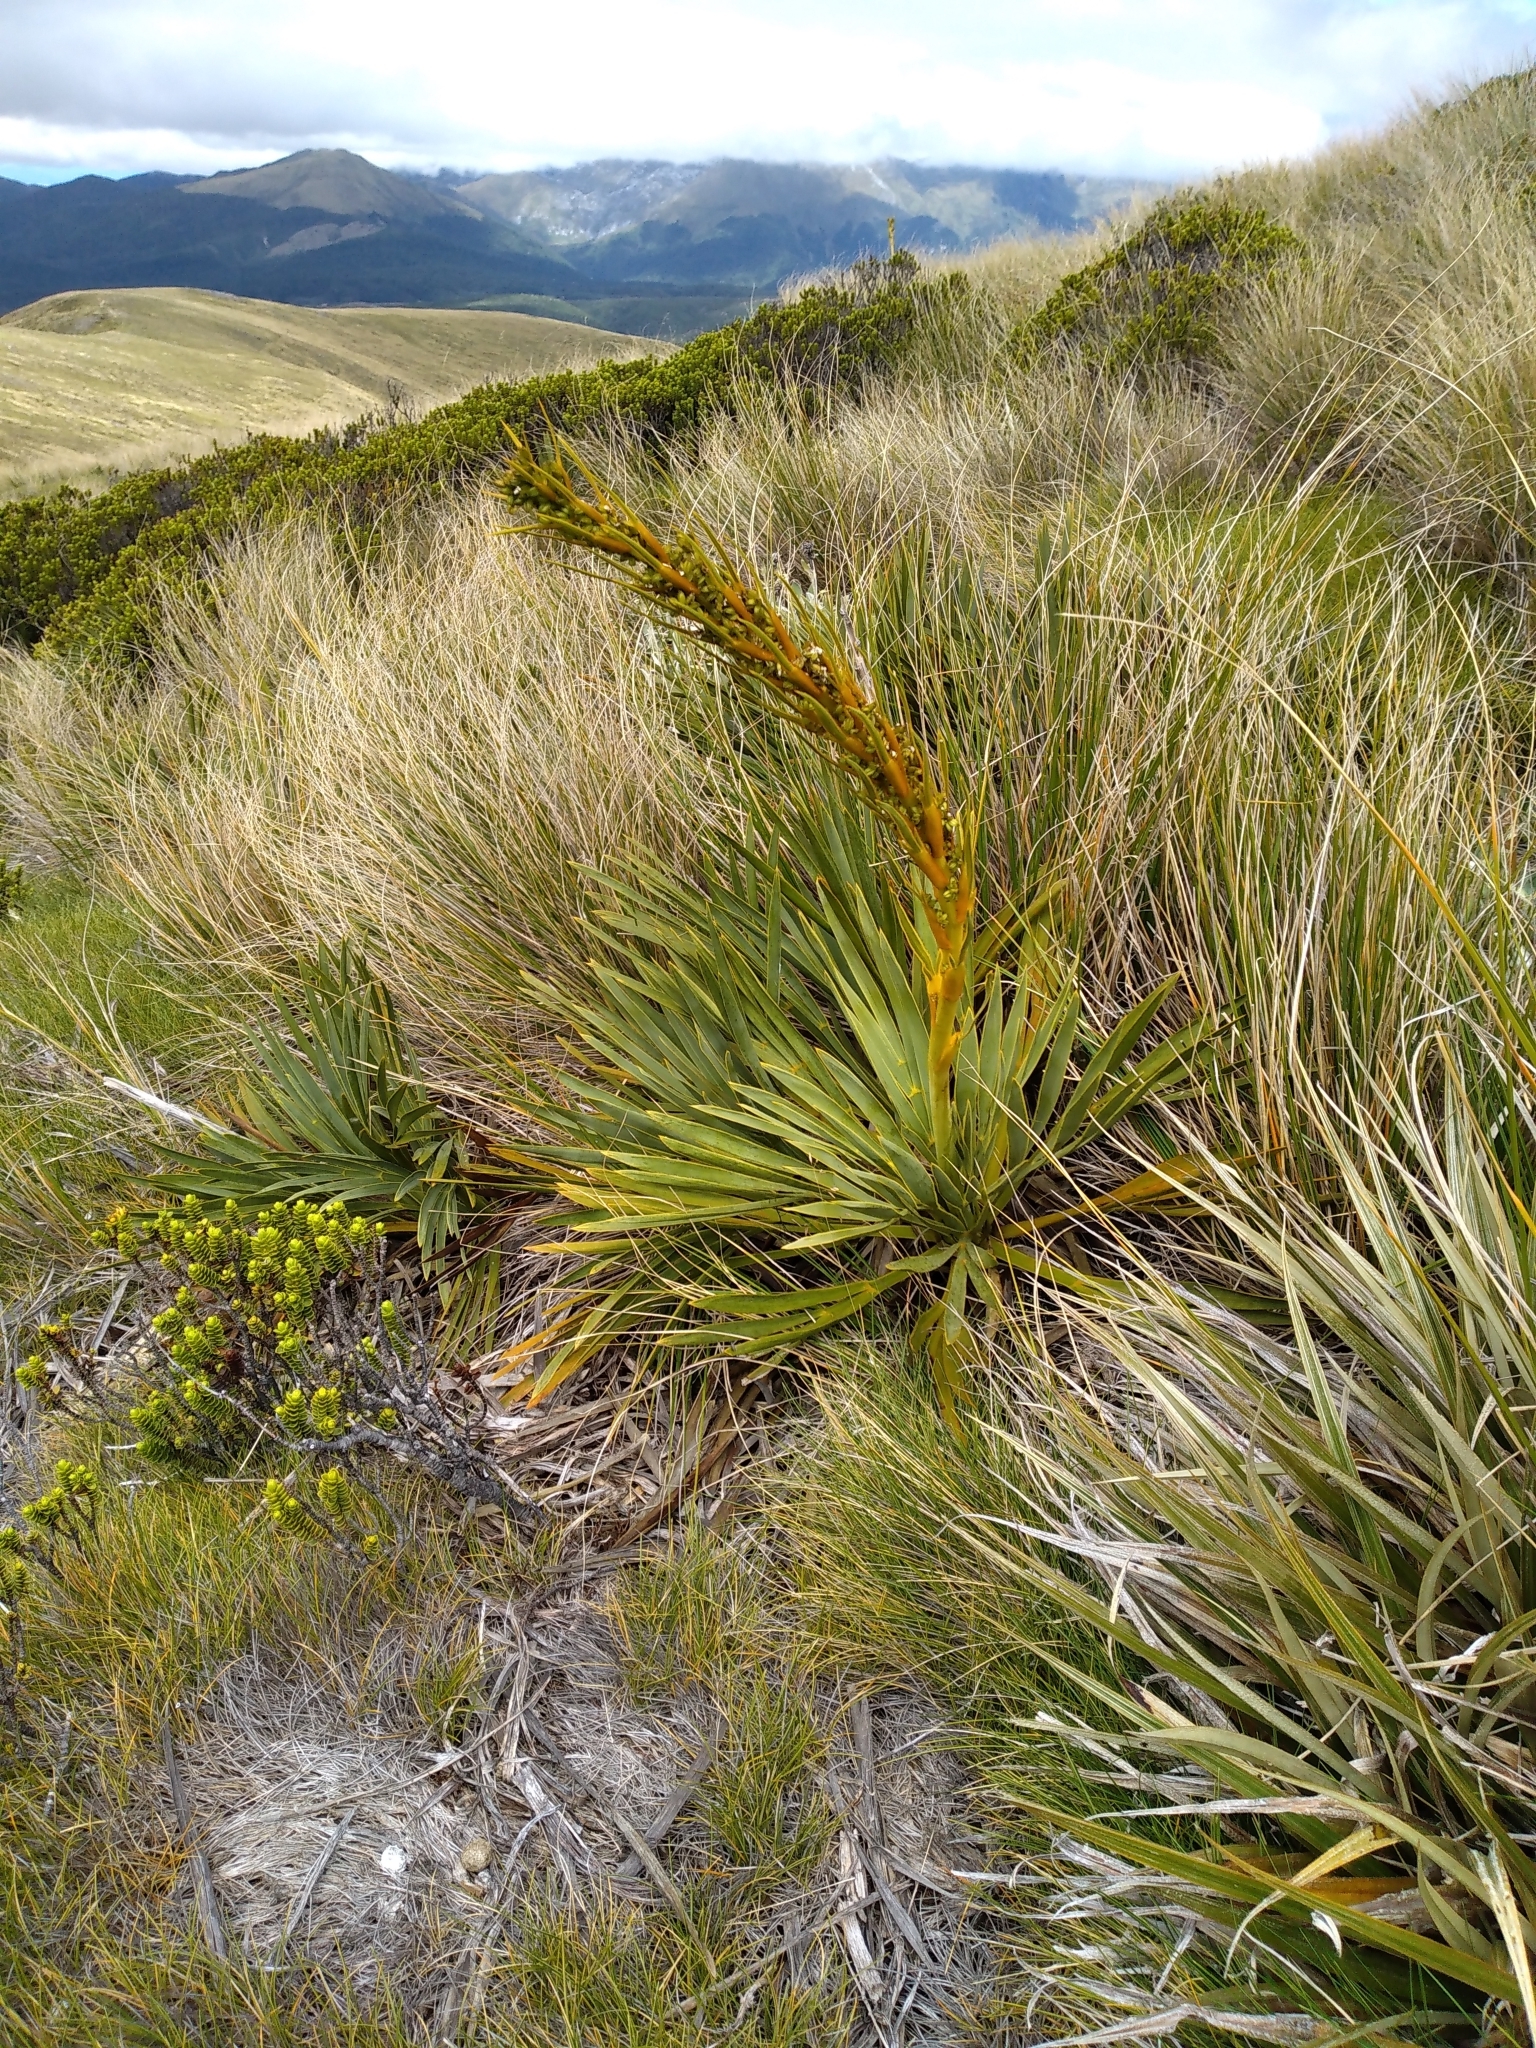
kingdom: Plantae
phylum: Tracheophyta
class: Magnoliopsida
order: Apiales
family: Apiaceae
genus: Aciphylla
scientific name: Aciphylla ferox
